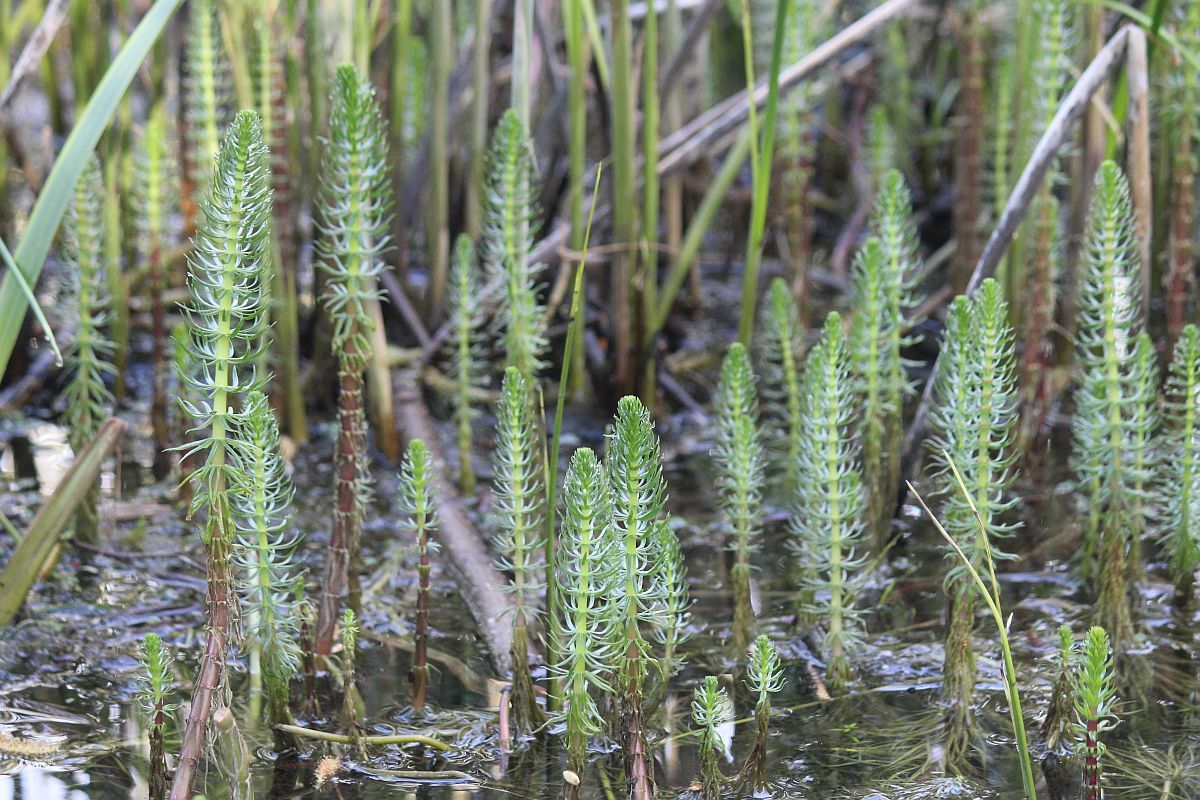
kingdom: Plantae
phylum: Tracheophyta
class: Magnoliopsida
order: Lamiales
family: Plantaginaceae
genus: Hippuris
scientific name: Hippuris vulgaris
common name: Mare's-tail
